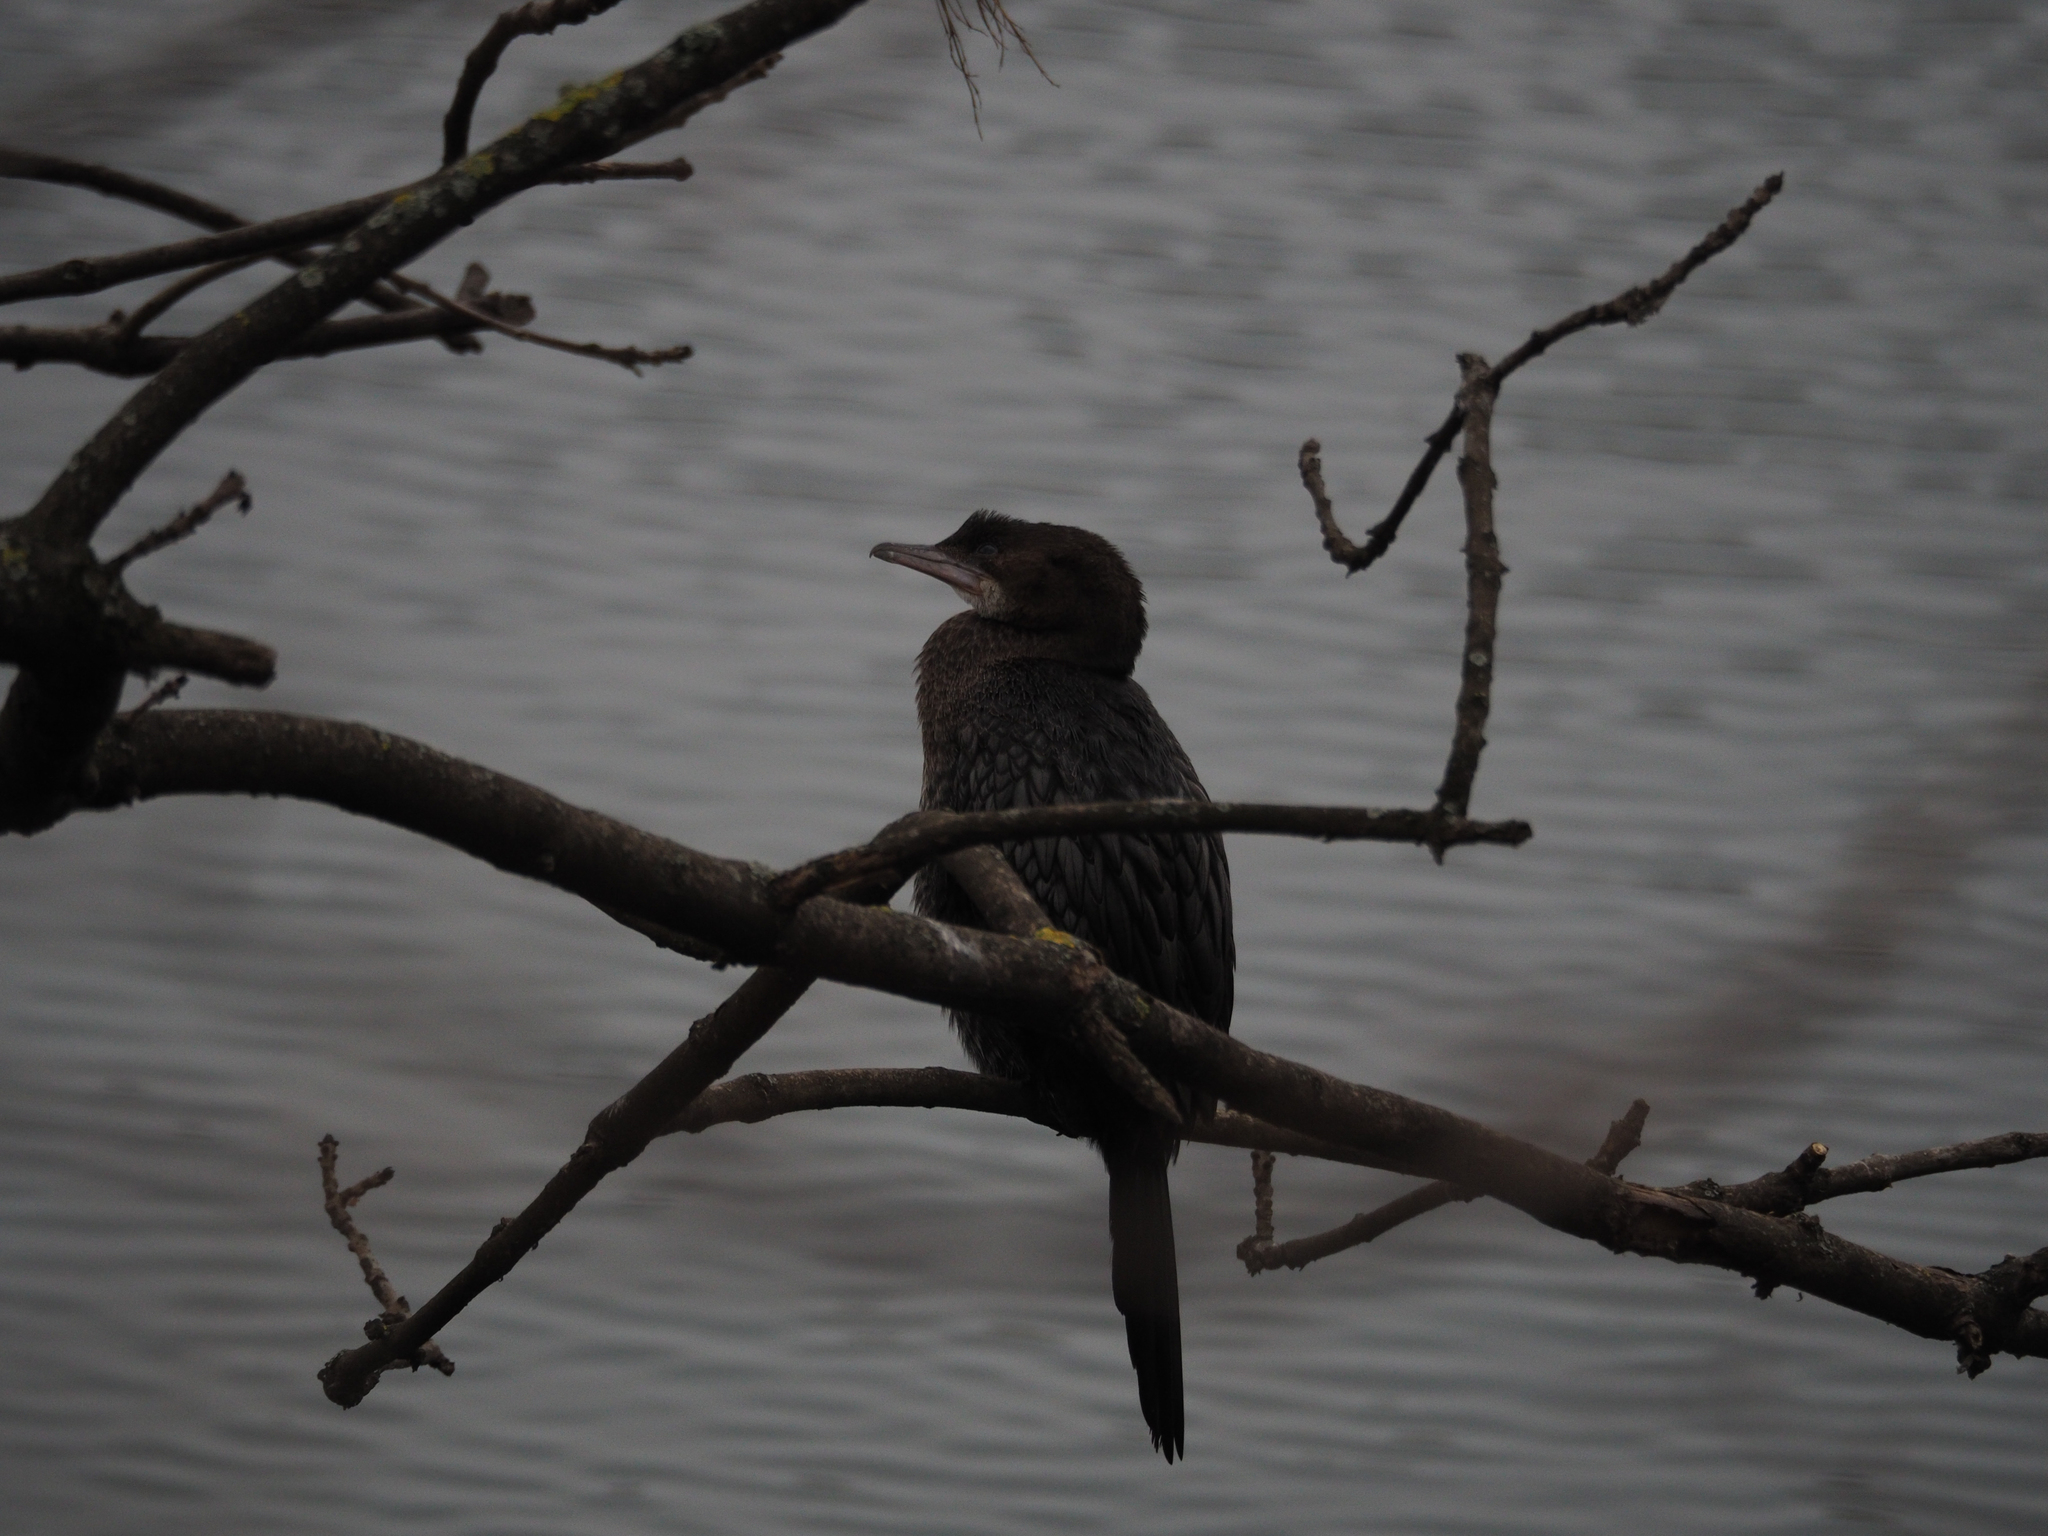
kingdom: Animalia
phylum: Chordata
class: Aves
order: Suliformes
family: Phalacrocoracidae
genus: Microcarbo
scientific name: Microcarbo pygmaeus
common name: Pygmy cormorant
